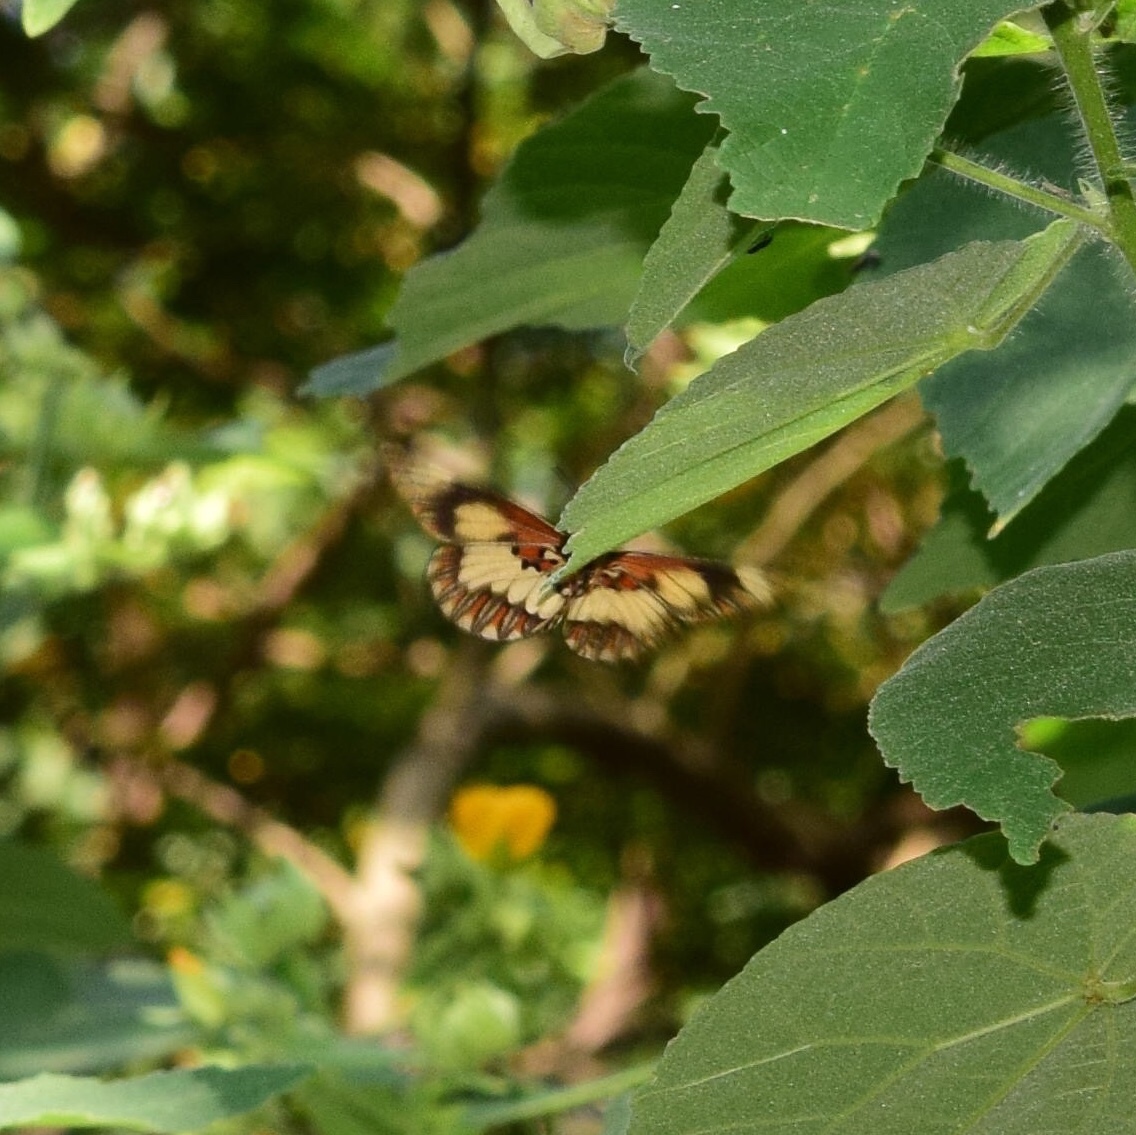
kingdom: Animalia
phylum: Arthropoda
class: Insecta
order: Lepidoptera
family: Nymphalidae
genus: Acraea
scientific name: Acraea cabira
